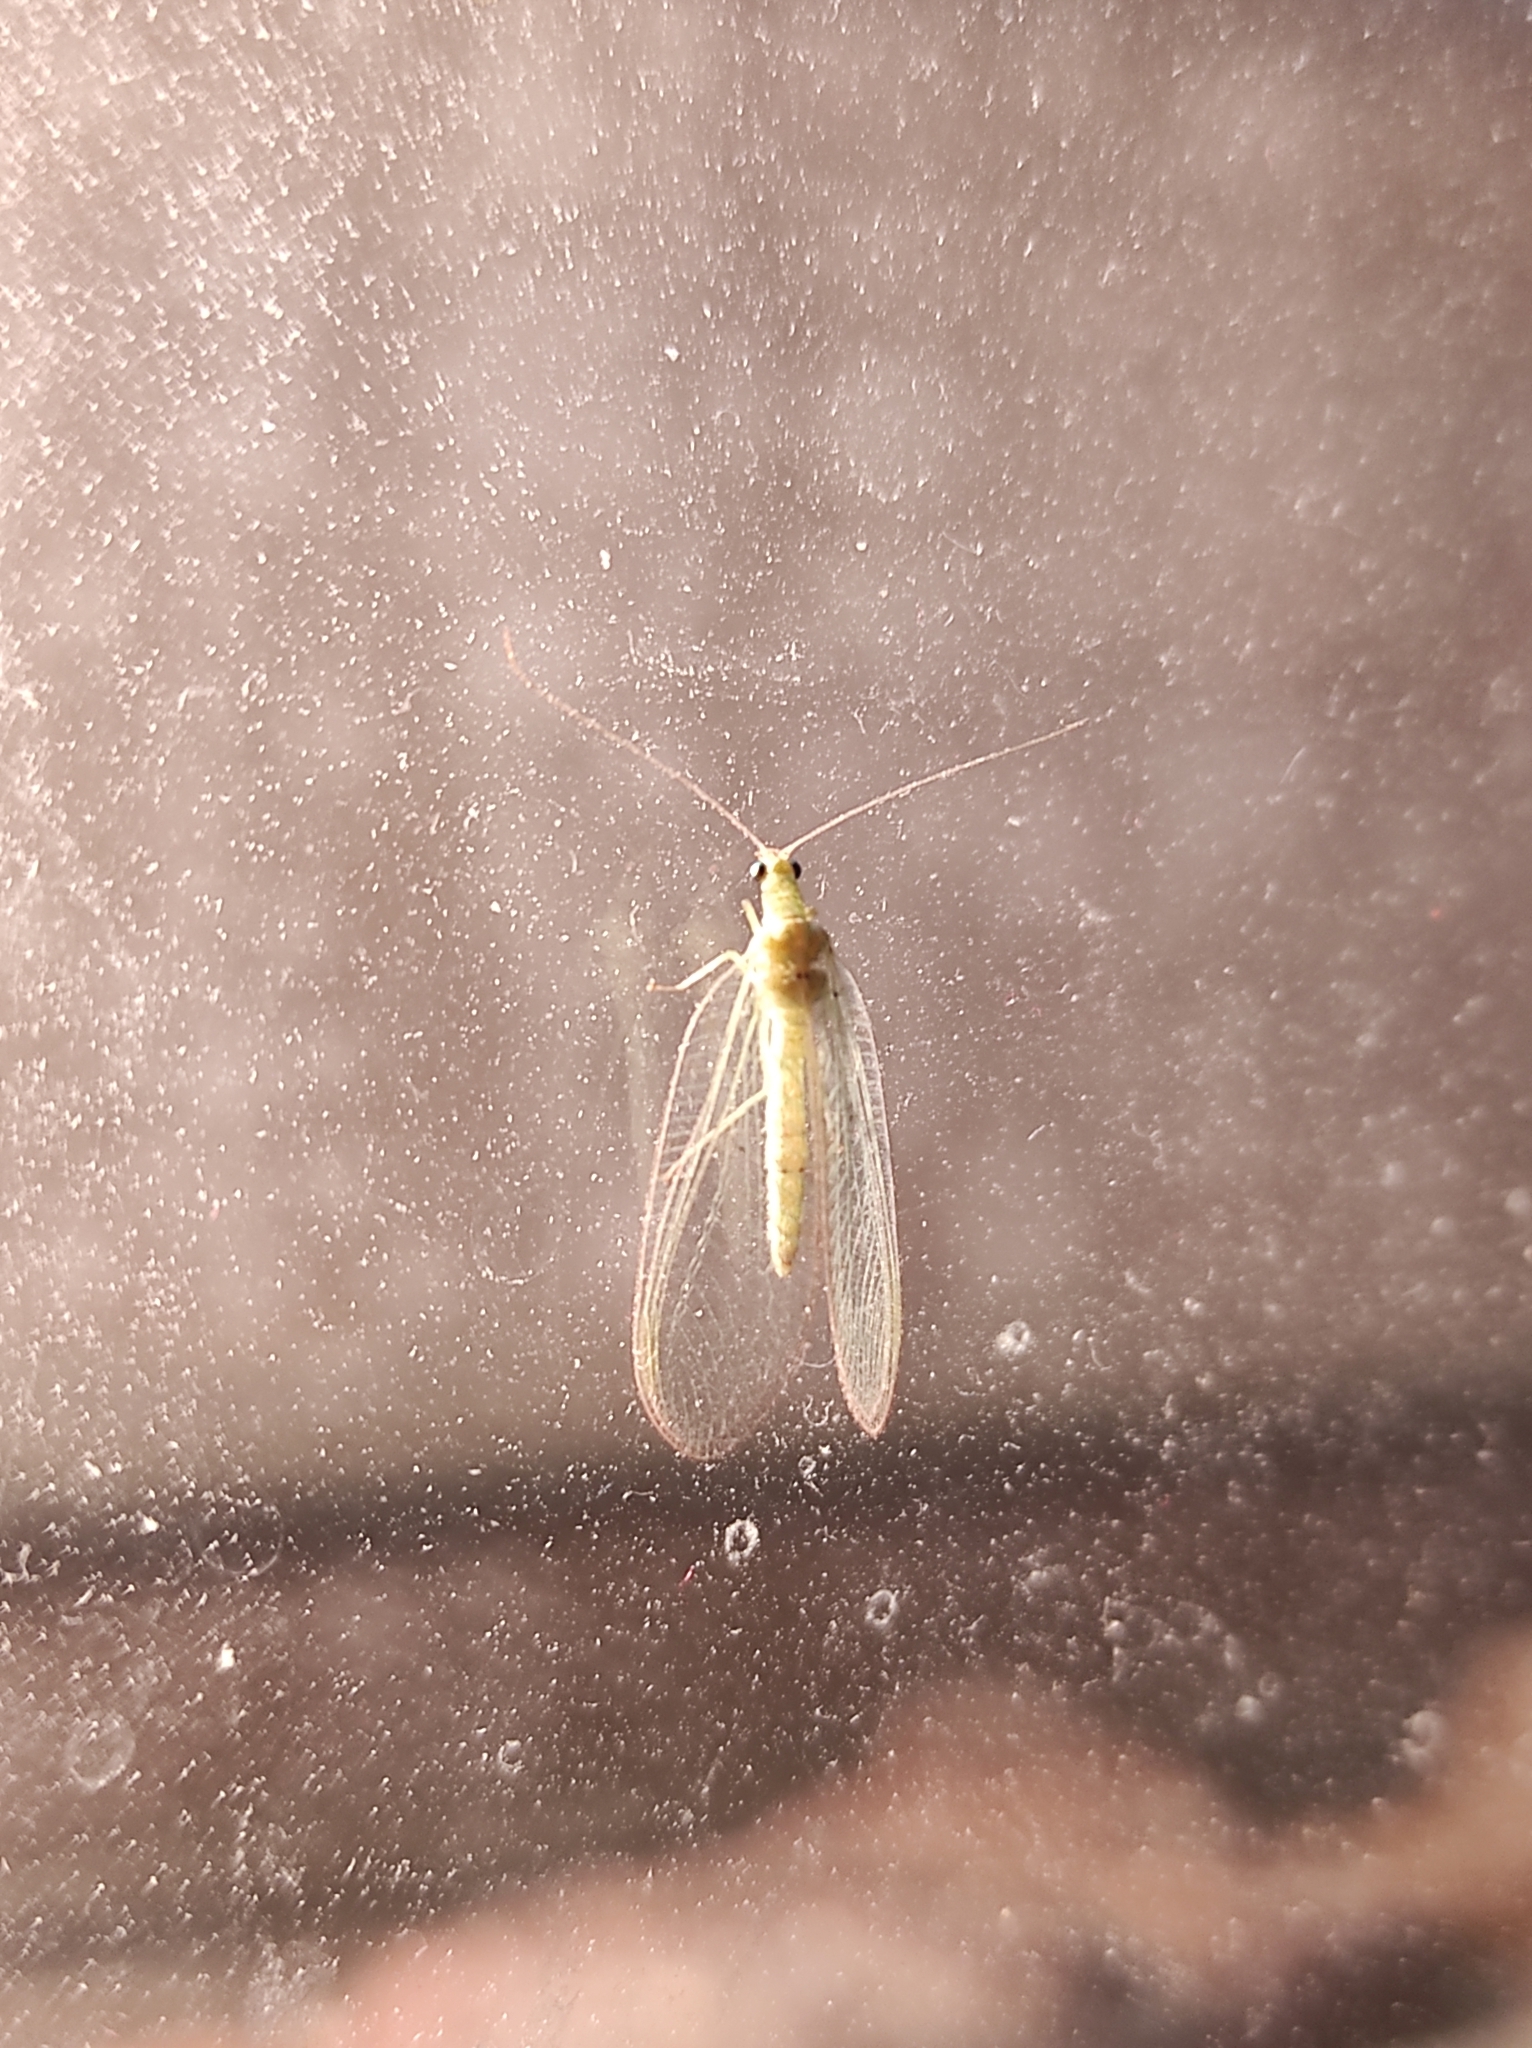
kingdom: Animalia
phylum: Arthropoda
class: Insecta
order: Neuroptera
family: Chrysopidae
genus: Chrysoperla
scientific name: Chrysoperla
